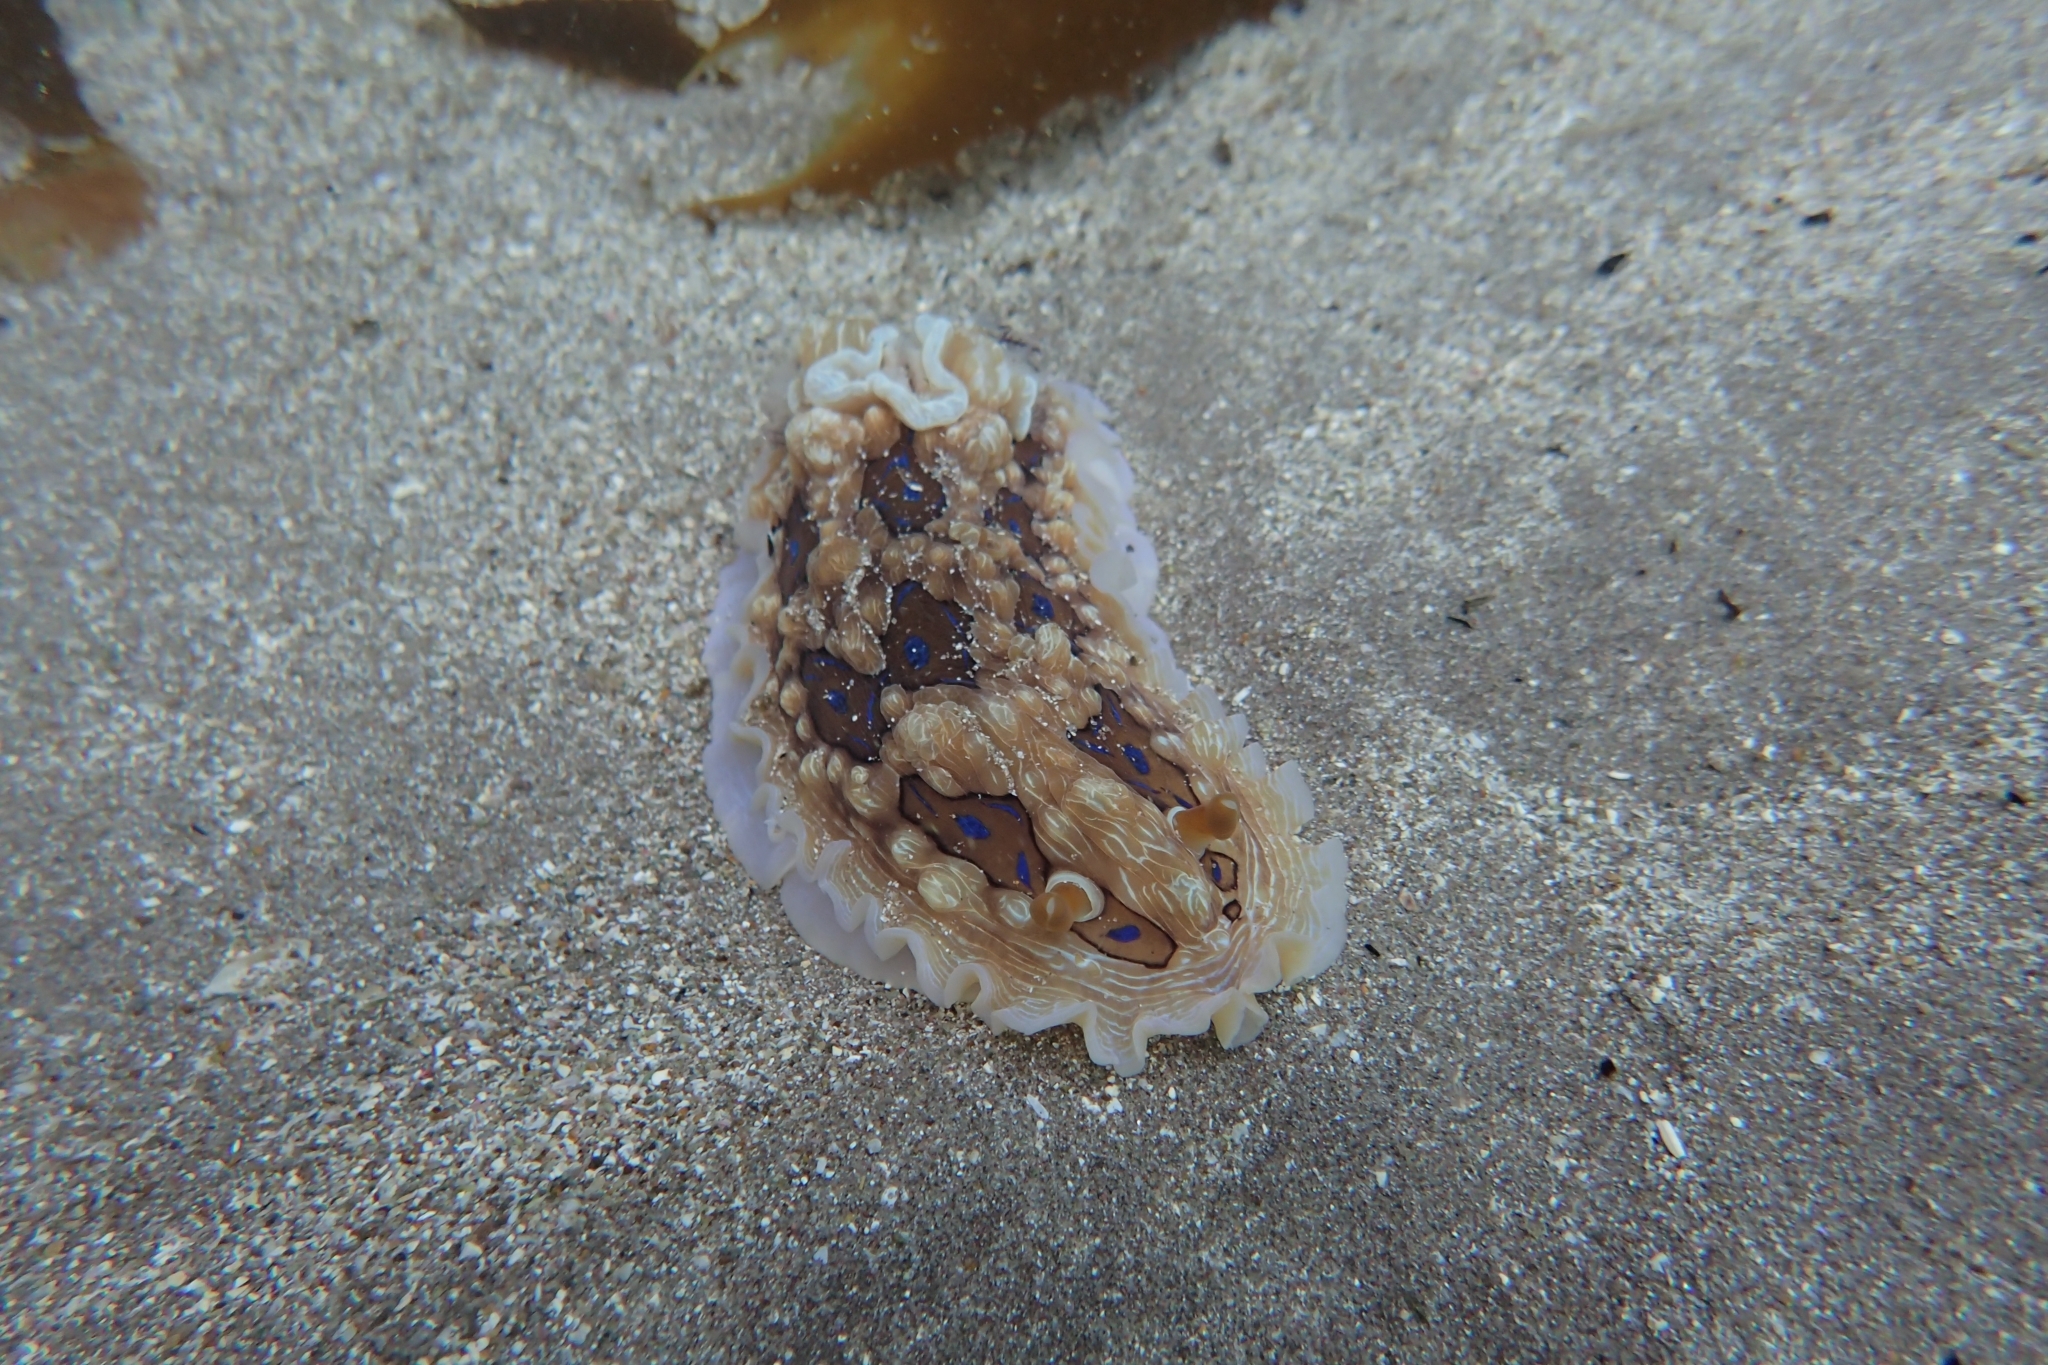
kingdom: Animalia
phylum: Mollusca
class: Gastropoda
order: Nudibranchia
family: Dendrodorididae
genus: Dendrodoris
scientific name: Dendrodoris krusensternii
